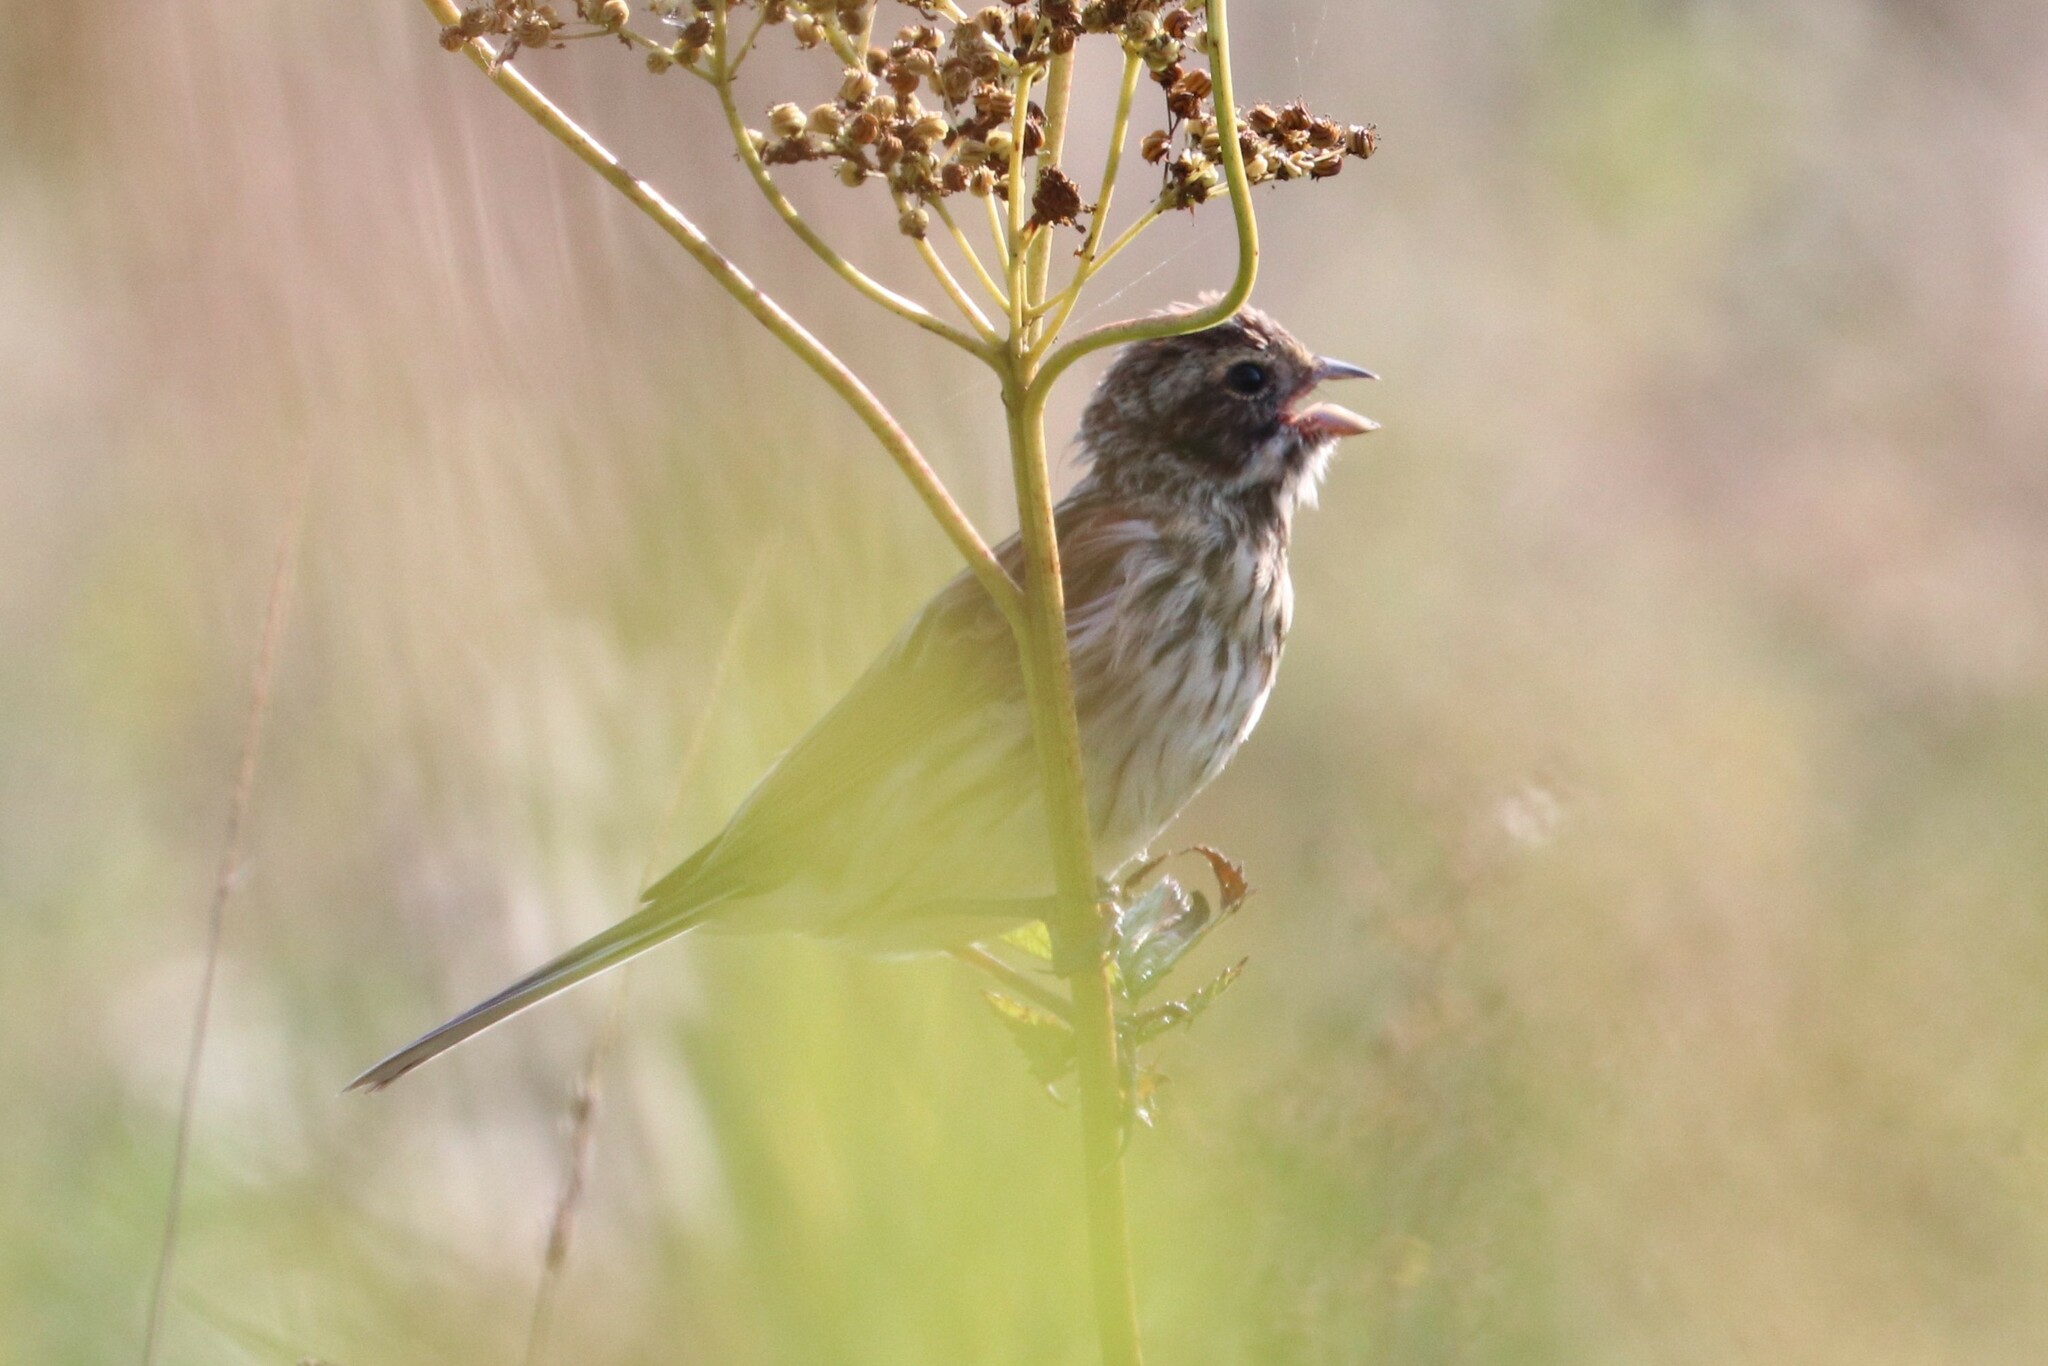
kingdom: Animalia
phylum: Chordata
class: Aves
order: Passeriformes
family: Emberizidae
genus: Emberiza
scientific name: Emberiza schoeniclus
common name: Reed bunting
